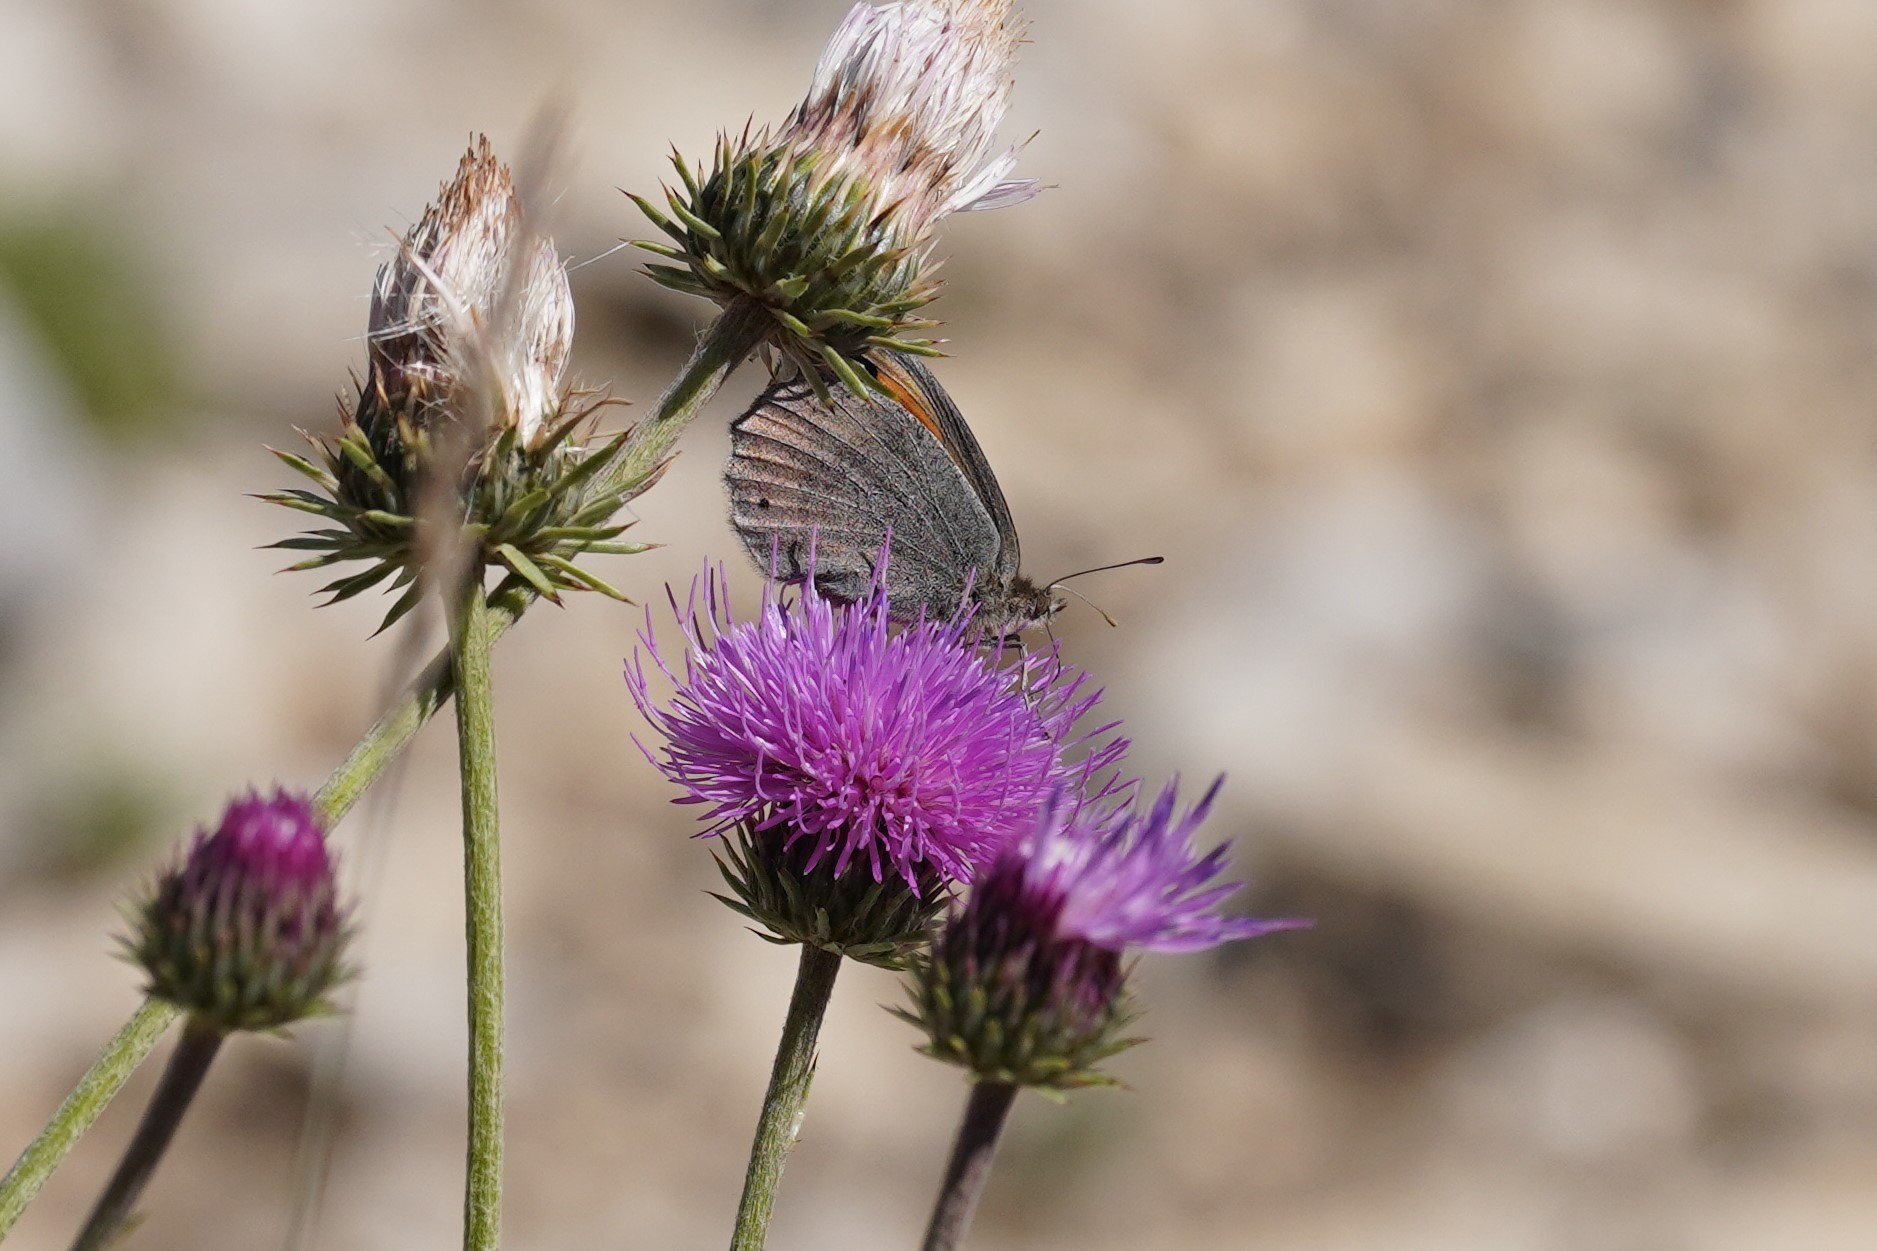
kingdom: Animalia
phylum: Arthropoda
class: Insecta
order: Lepidoptera
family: Nymphalidae
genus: Erebia
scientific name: Erebia scipio
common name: Larche ringlet
